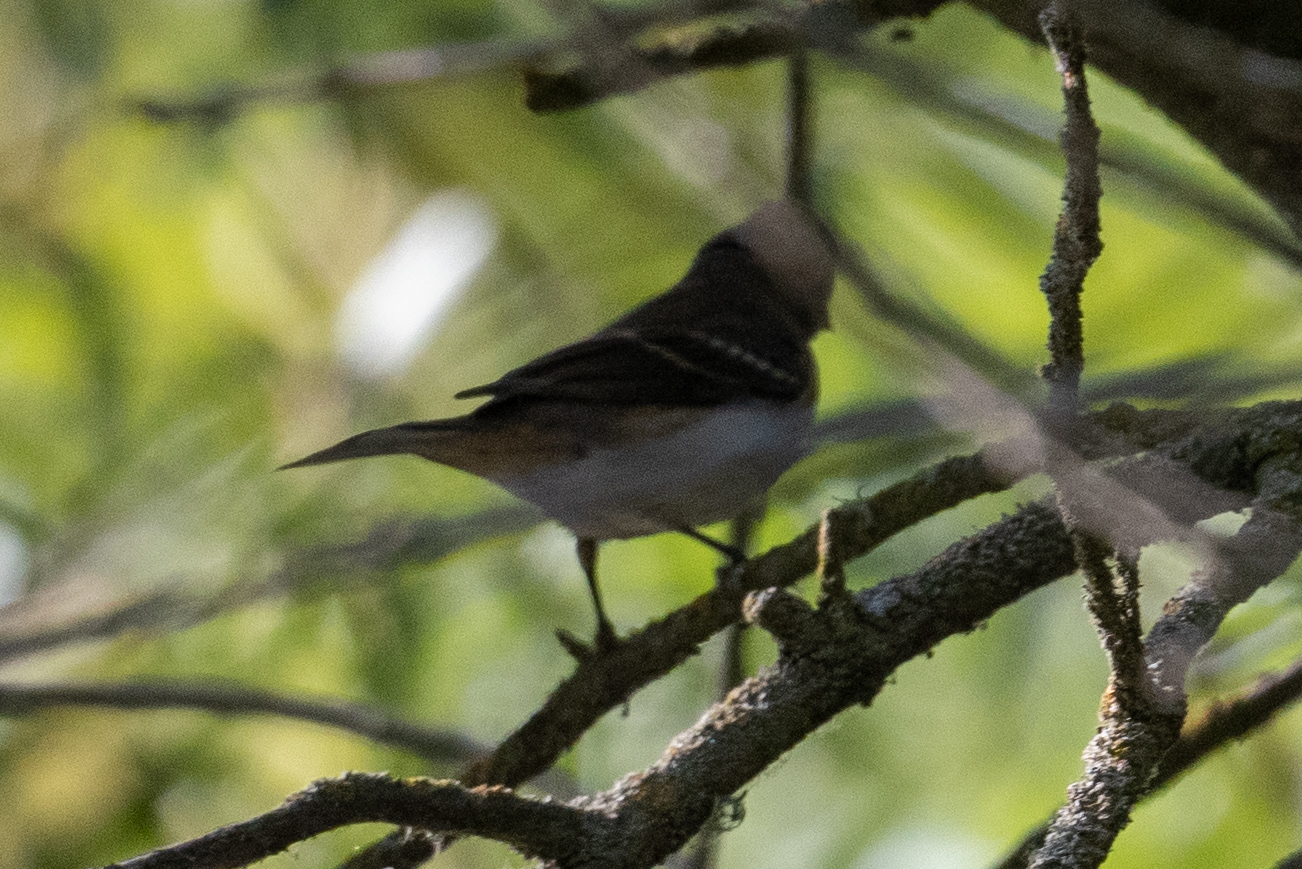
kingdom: Animalia
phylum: Chordata
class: Aves
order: Passeriformes
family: Cardinalidae
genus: Passerina
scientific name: Passerina amoena
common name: Lazuli bunting
